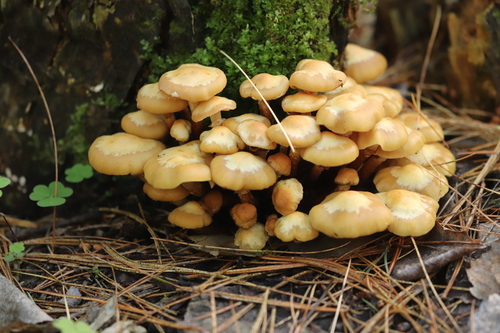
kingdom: Fungi
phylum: Basidiomycota
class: Agaricomycetes
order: Agaricales
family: Strophariaceae
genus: Kuehneromyces
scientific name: Kuehneromyces mutabilis
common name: Sheathed woodtuft
